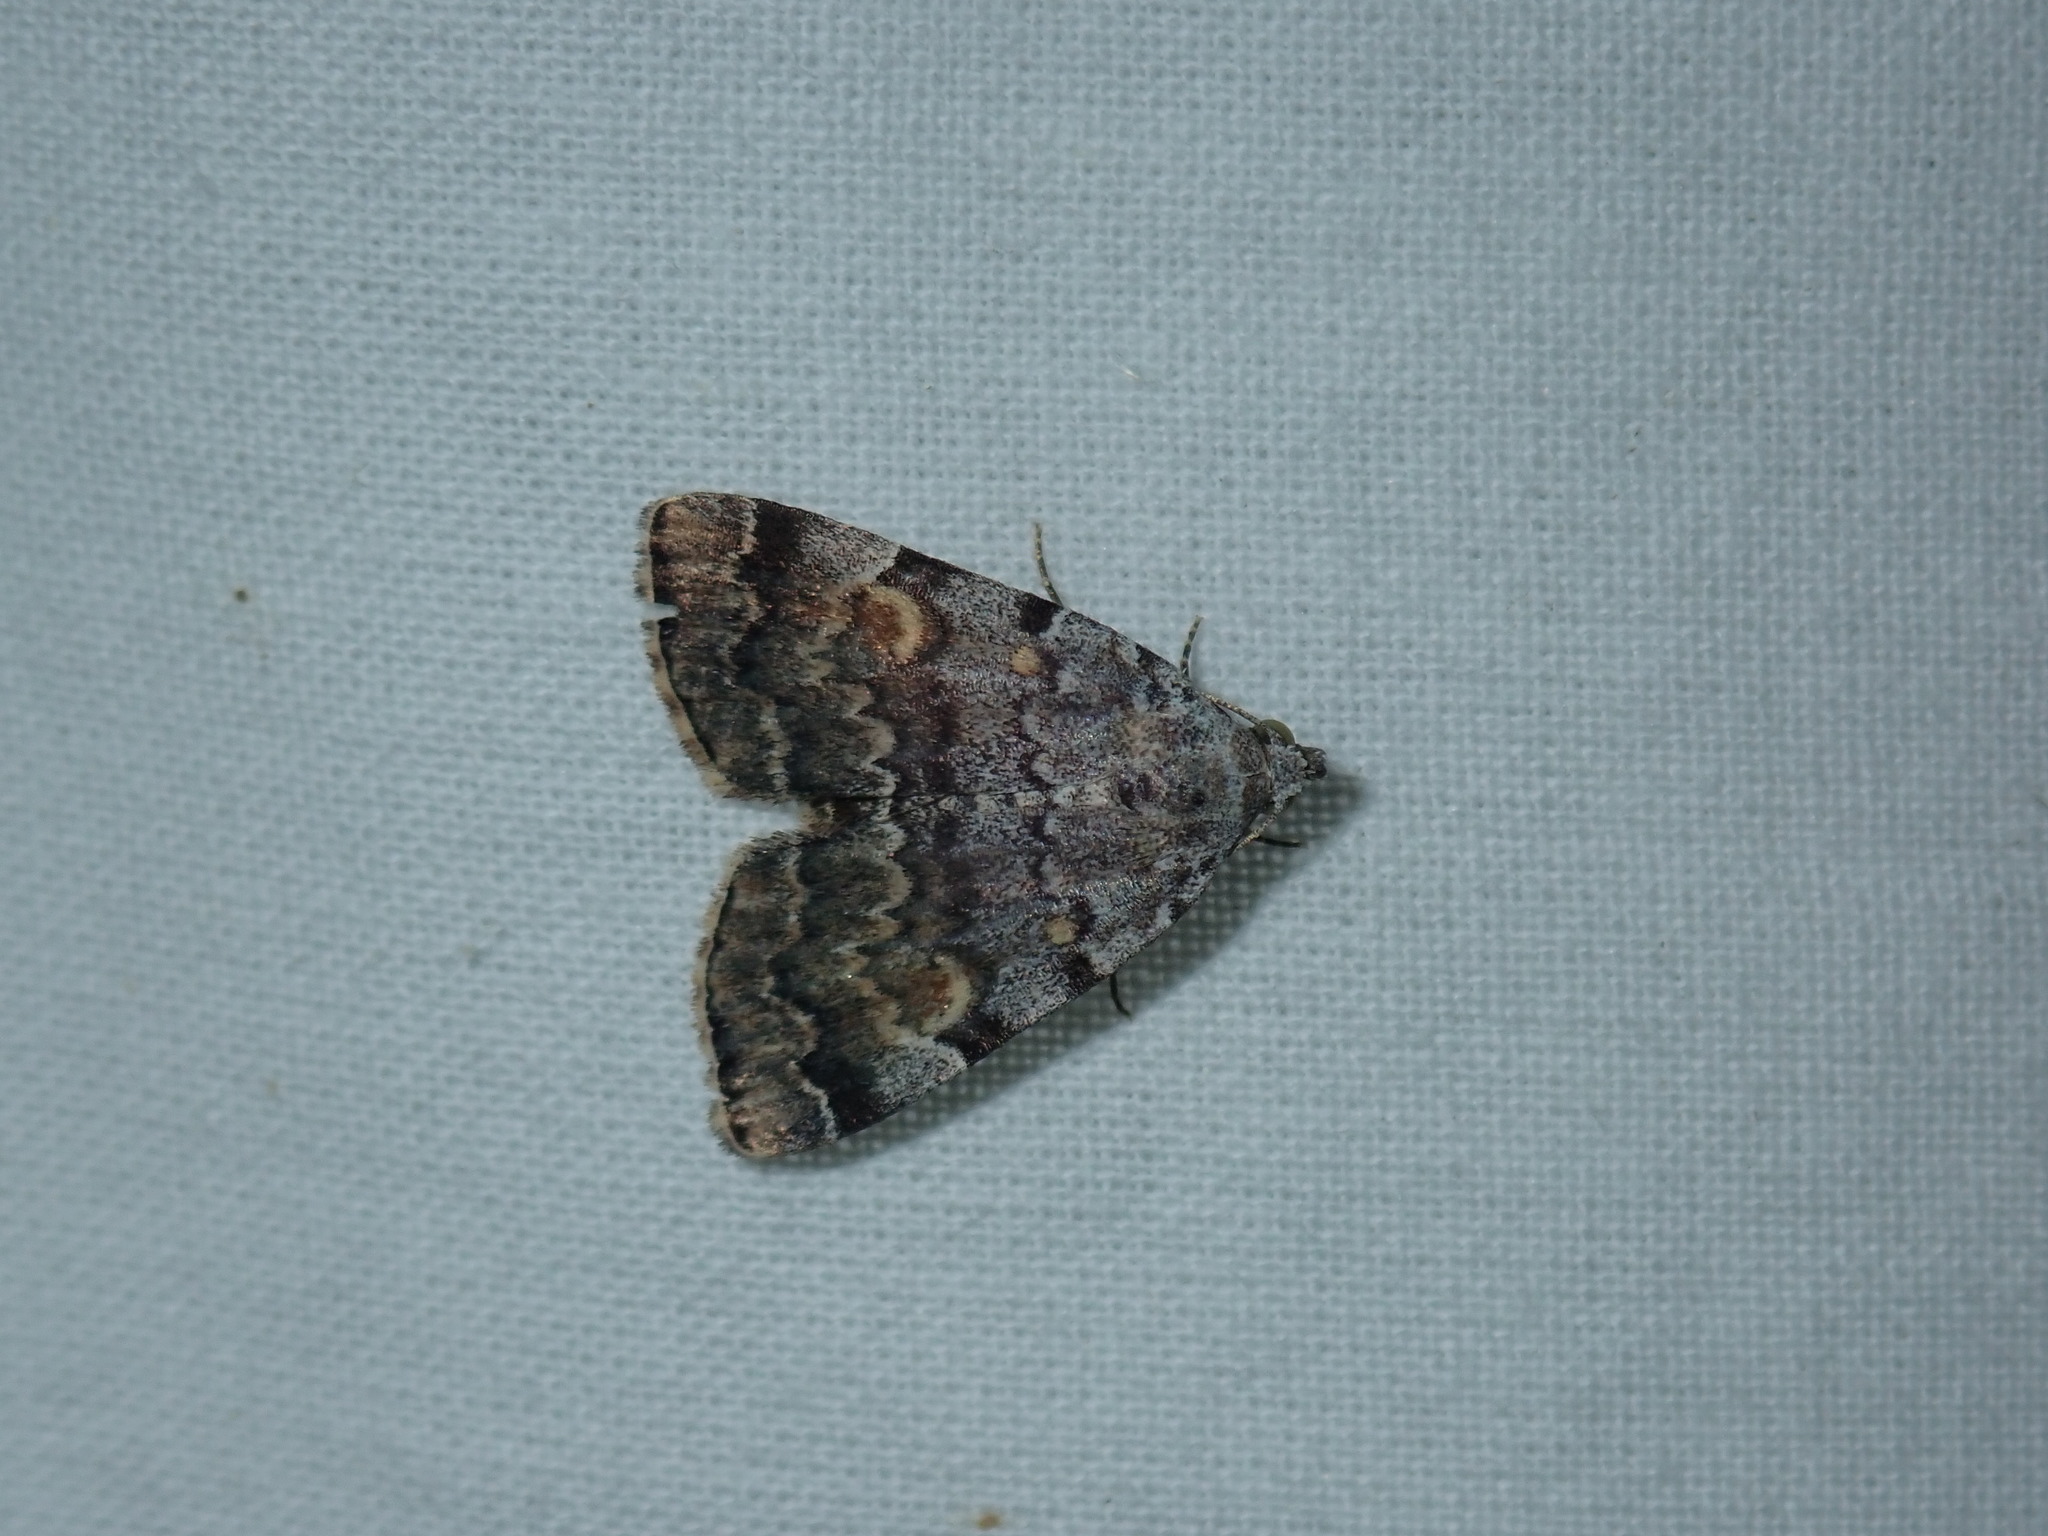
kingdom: Animalia
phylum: Arthropoda
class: Insecta
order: Lepidoptera
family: Erebidae
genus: Idia
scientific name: Idia americalis
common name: American idia moth
